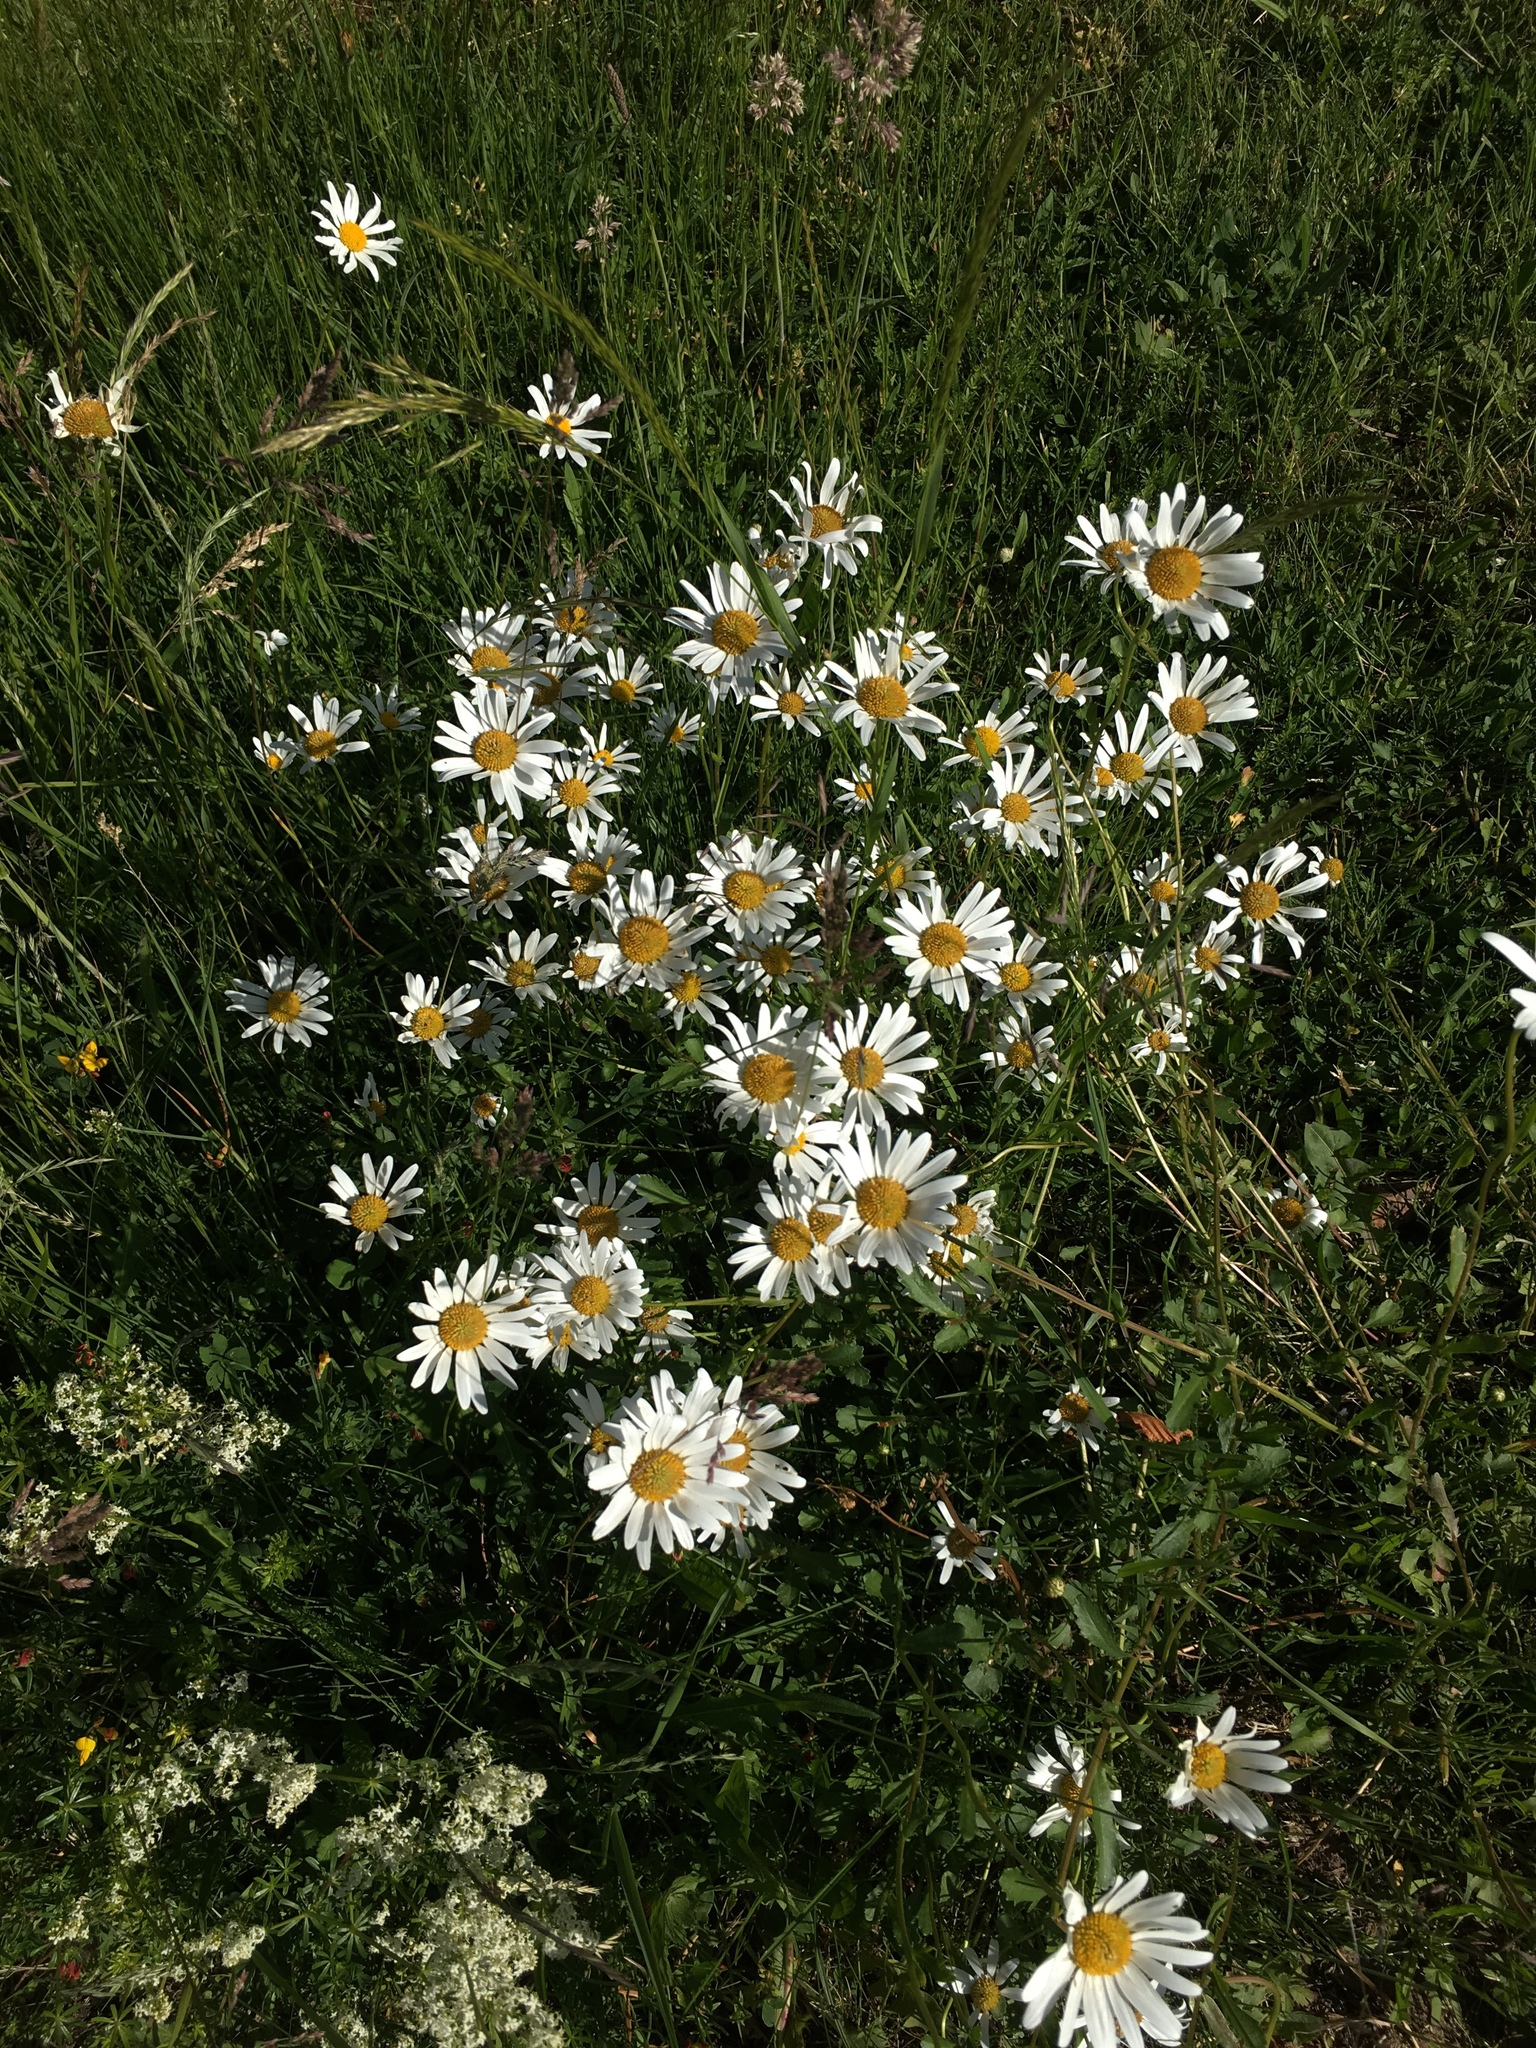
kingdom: Plantae
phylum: Tracheophyta
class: Magnoliopsida
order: Asterales
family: Asteraceae
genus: Leucanthemum
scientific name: Leucanthemum vulgare
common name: Oxeye daisy
